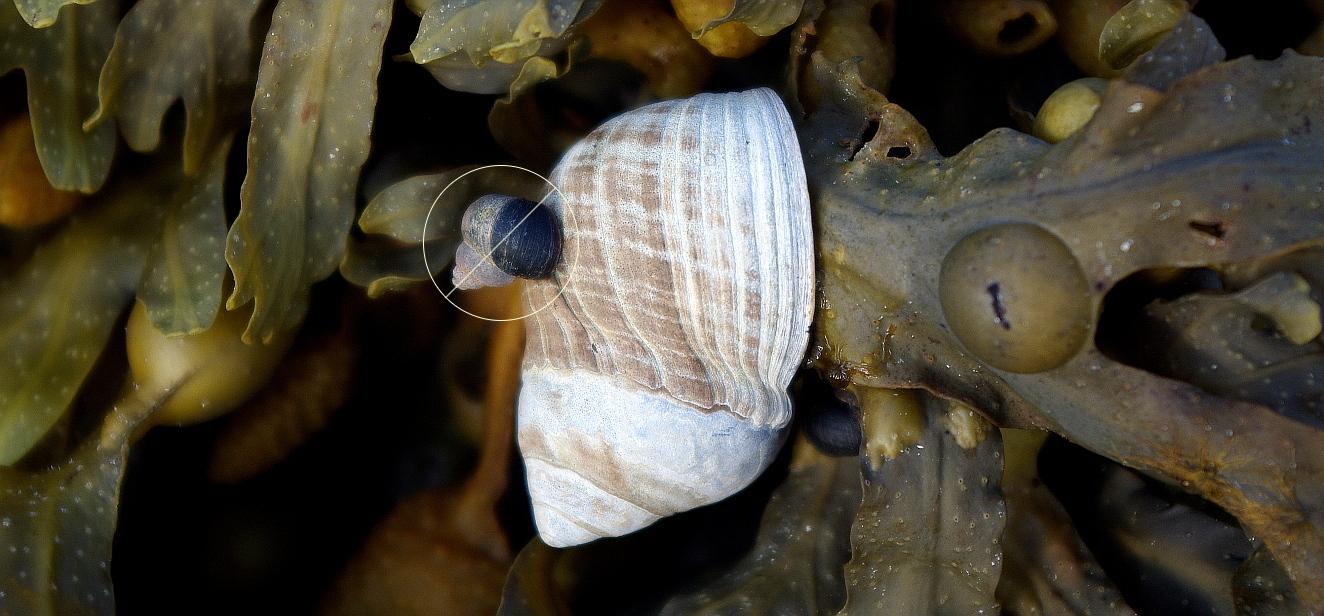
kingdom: Animalia
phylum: Mollusca
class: Gastropoda
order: Littorinimorpha
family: Littorinidae
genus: Littorina
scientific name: Littorina littorea
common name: Common periwinkle
